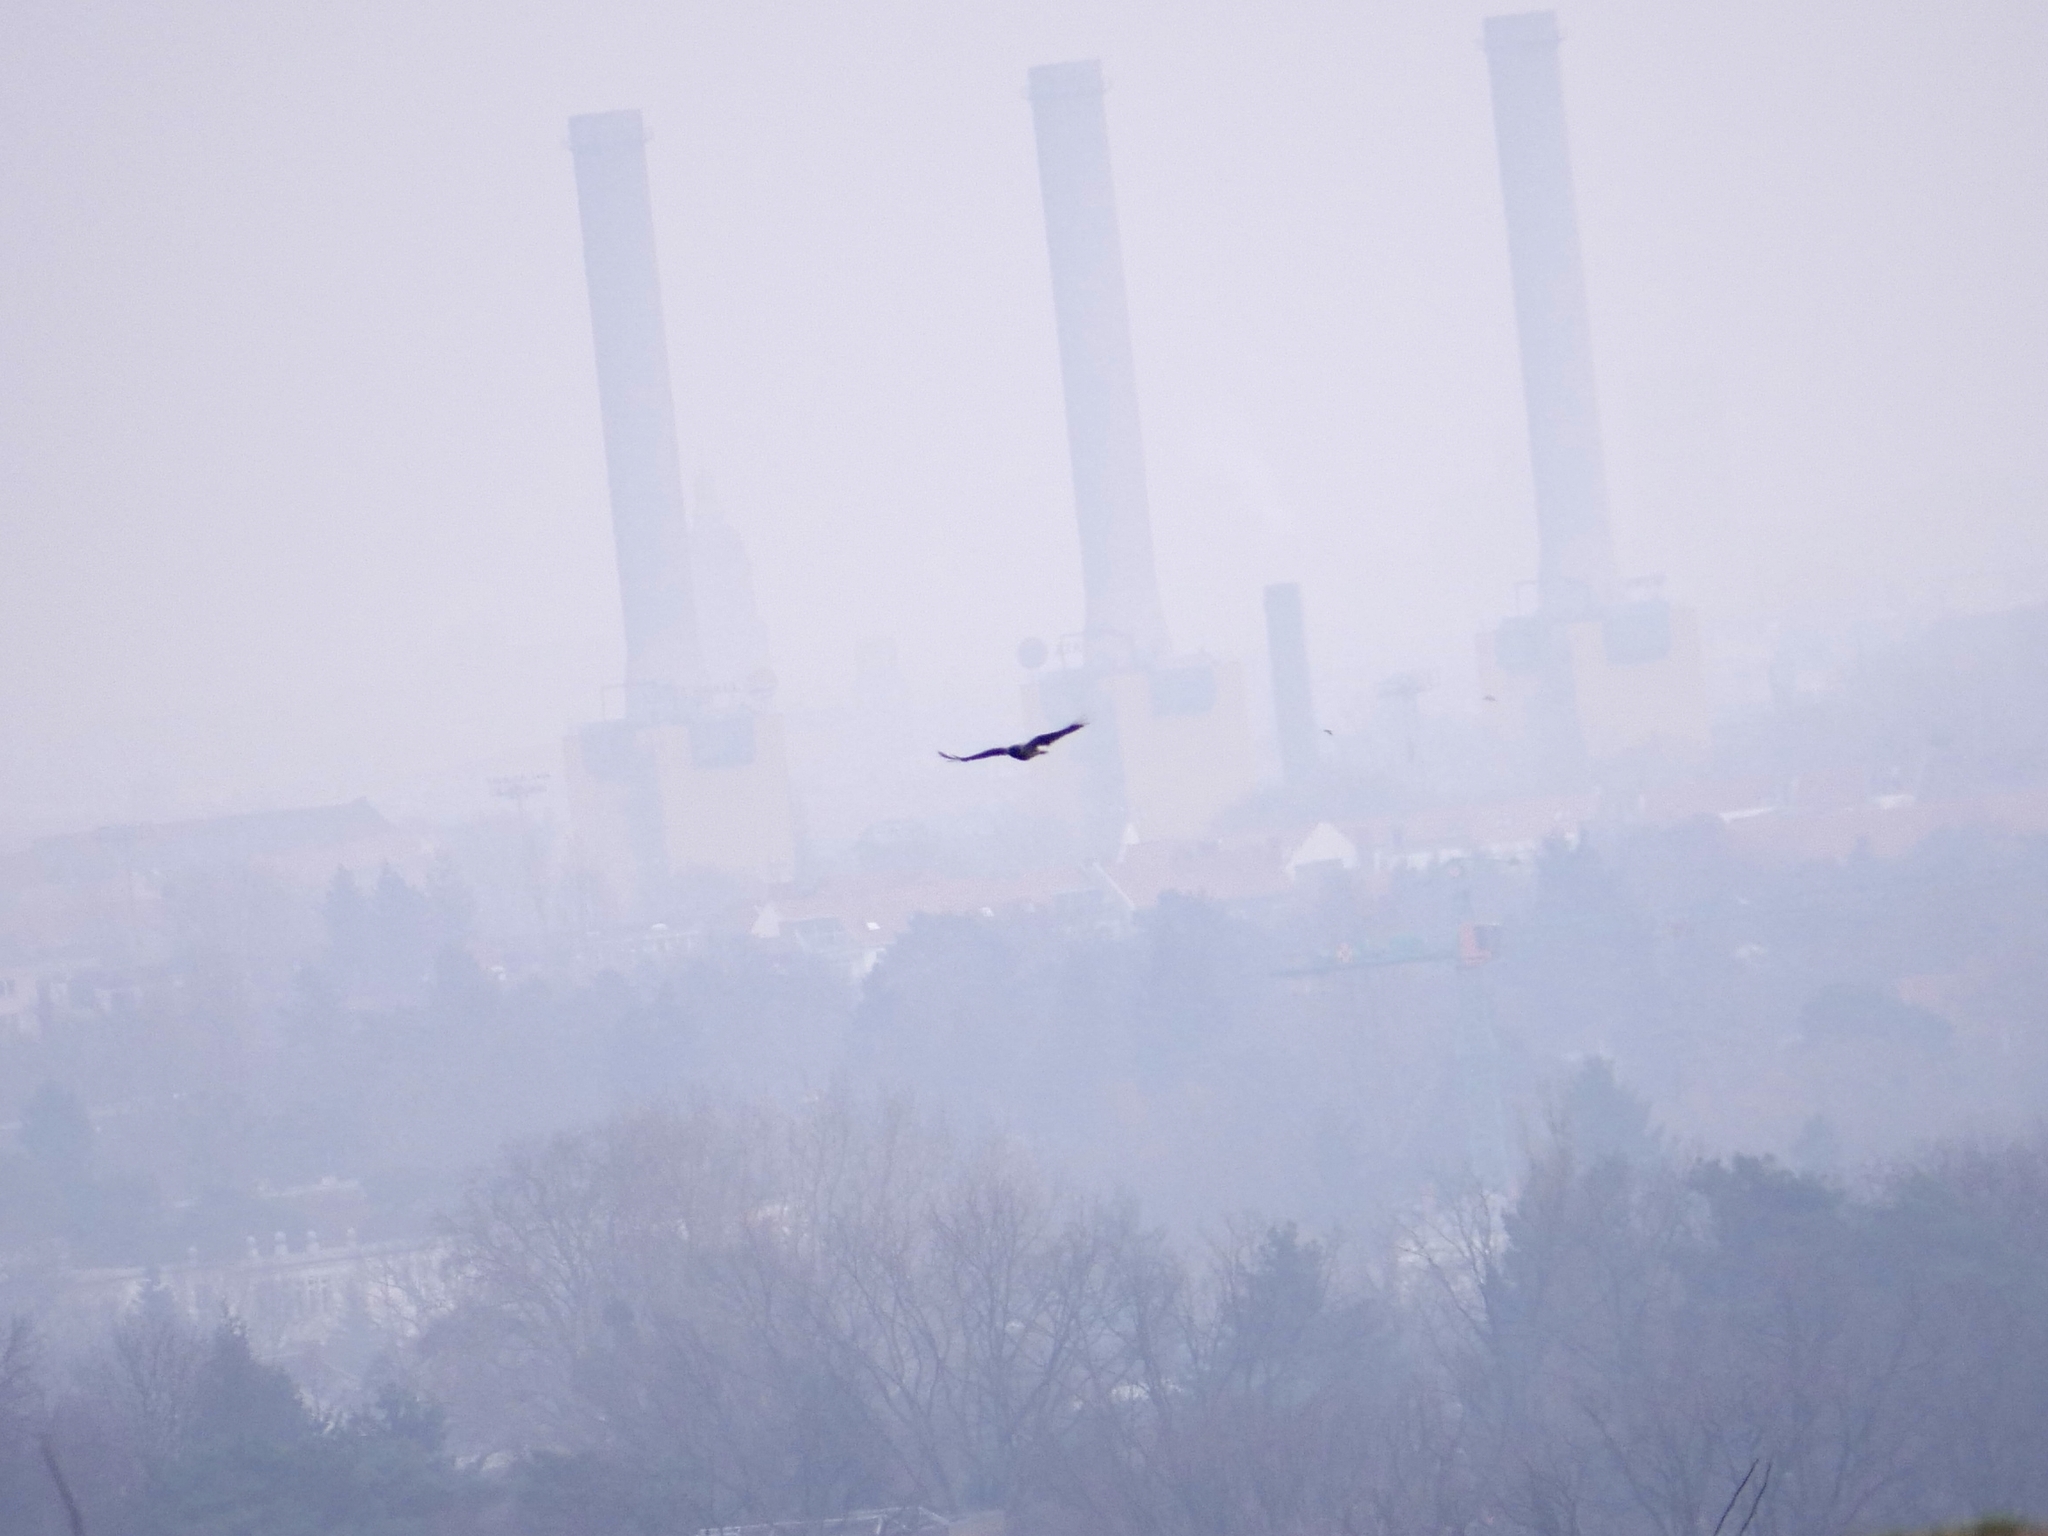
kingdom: Animalia
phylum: Chordata
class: Aves
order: Passeriformes
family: Corvidae
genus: Corvus
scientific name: Corvus cornix
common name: Hooded crow
